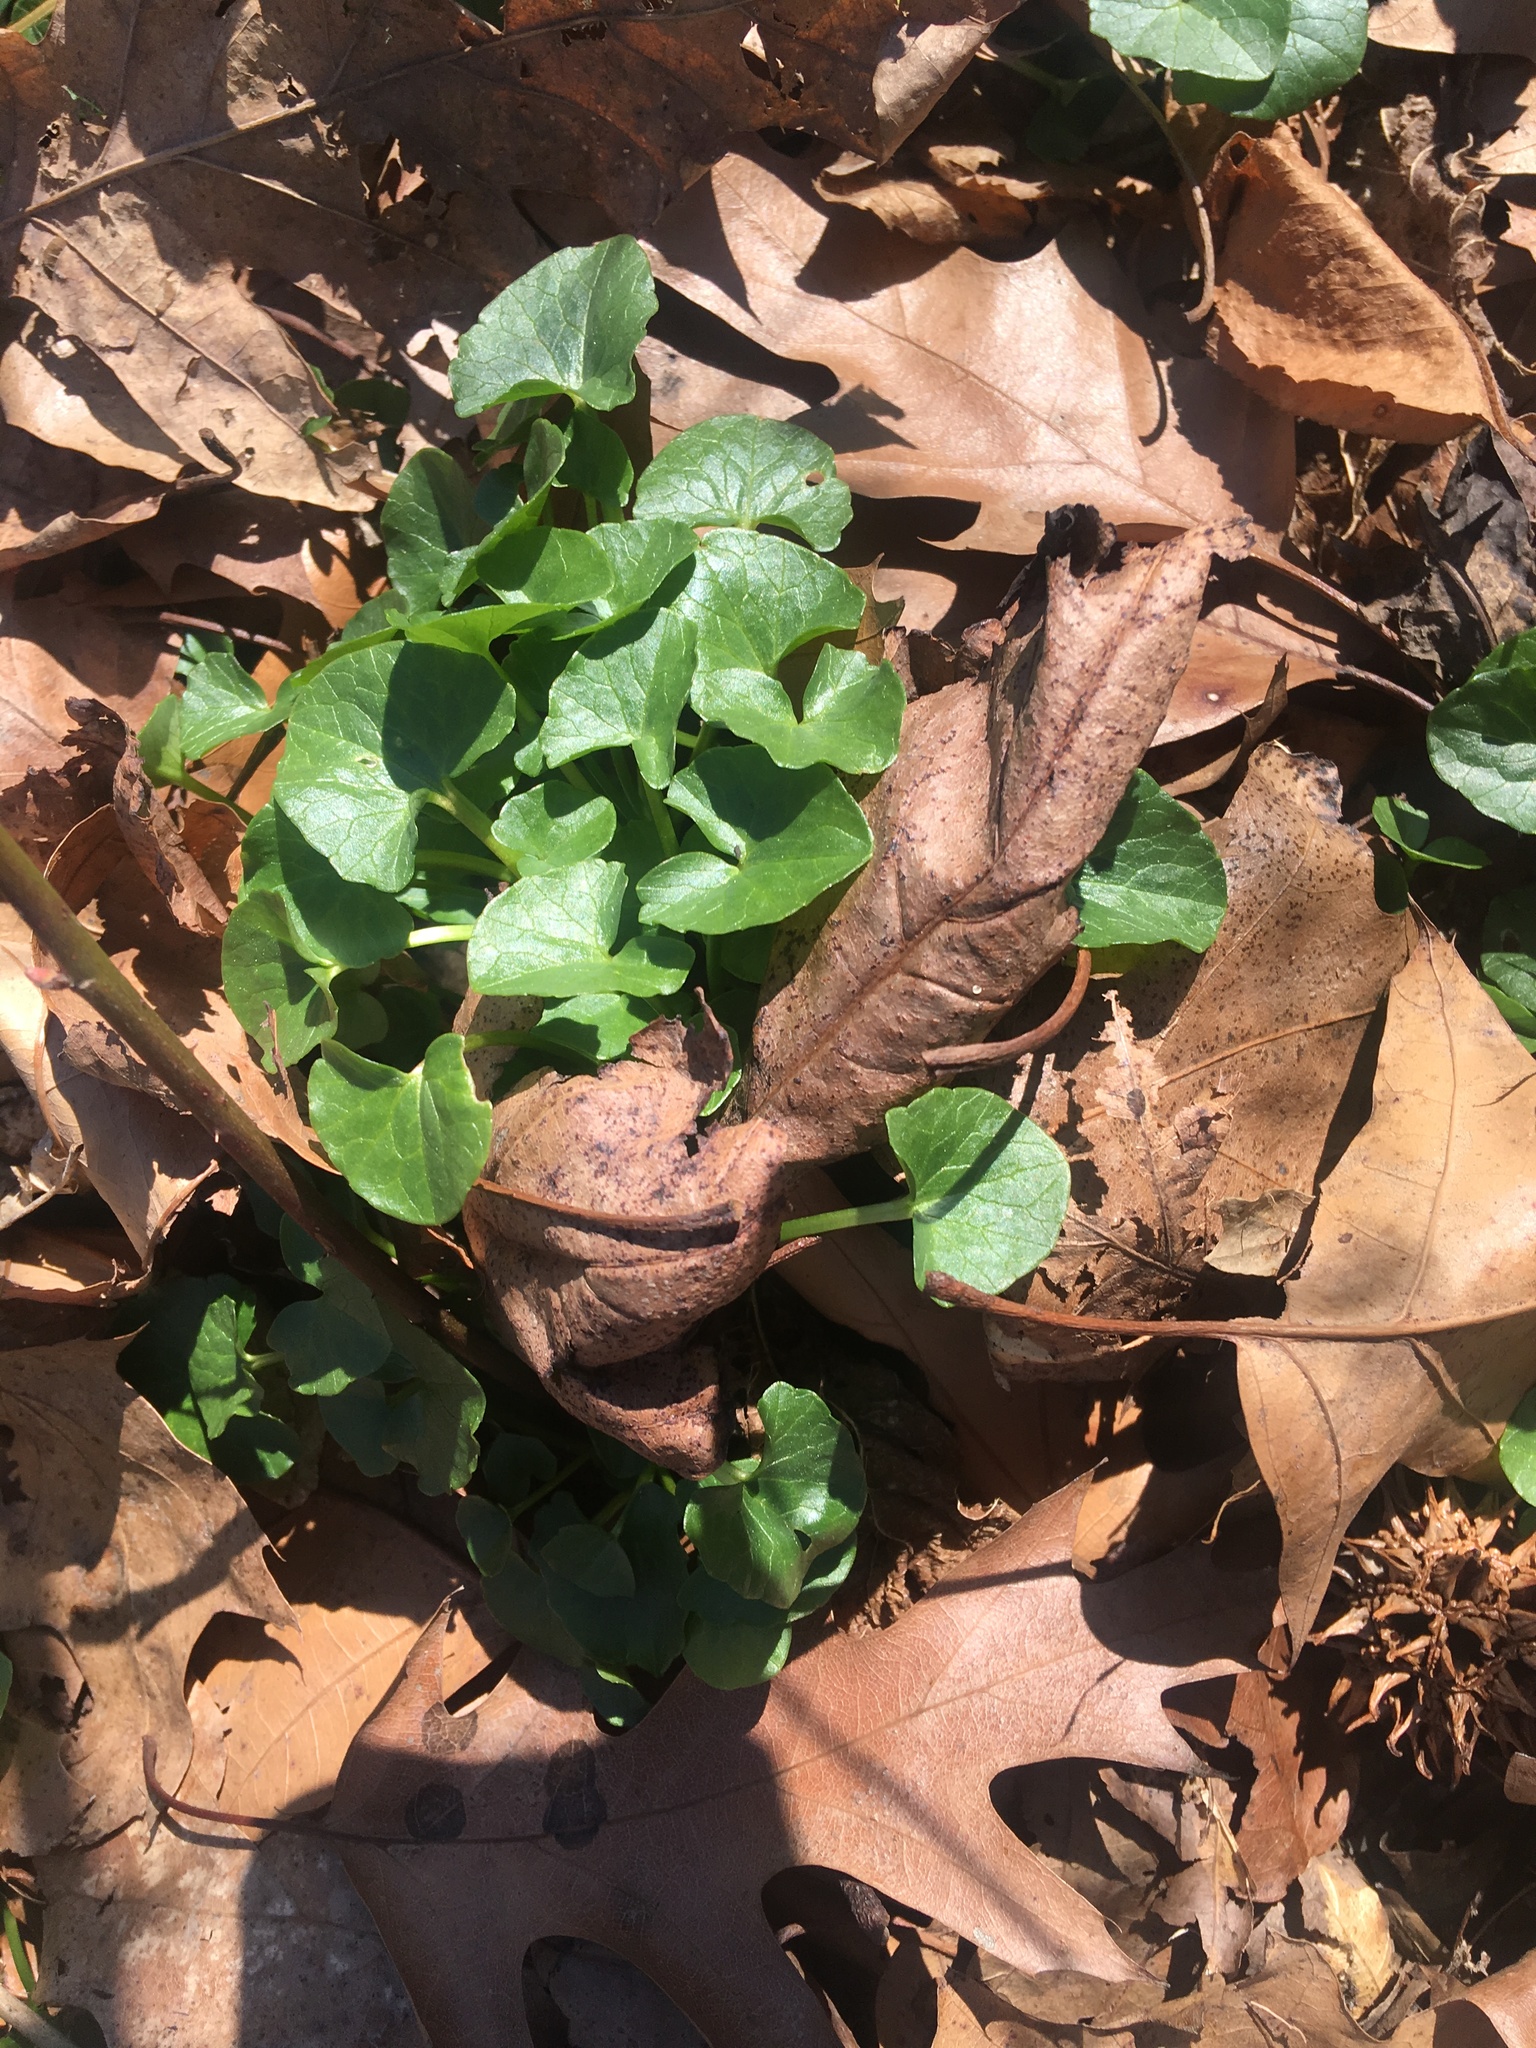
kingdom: Plantae
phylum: Tracheophyta
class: Magnoliopsida
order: Ranunculales
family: Ranunculaceae
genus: Ficaria
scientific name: Ficaria verna
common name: Lesser celandine
